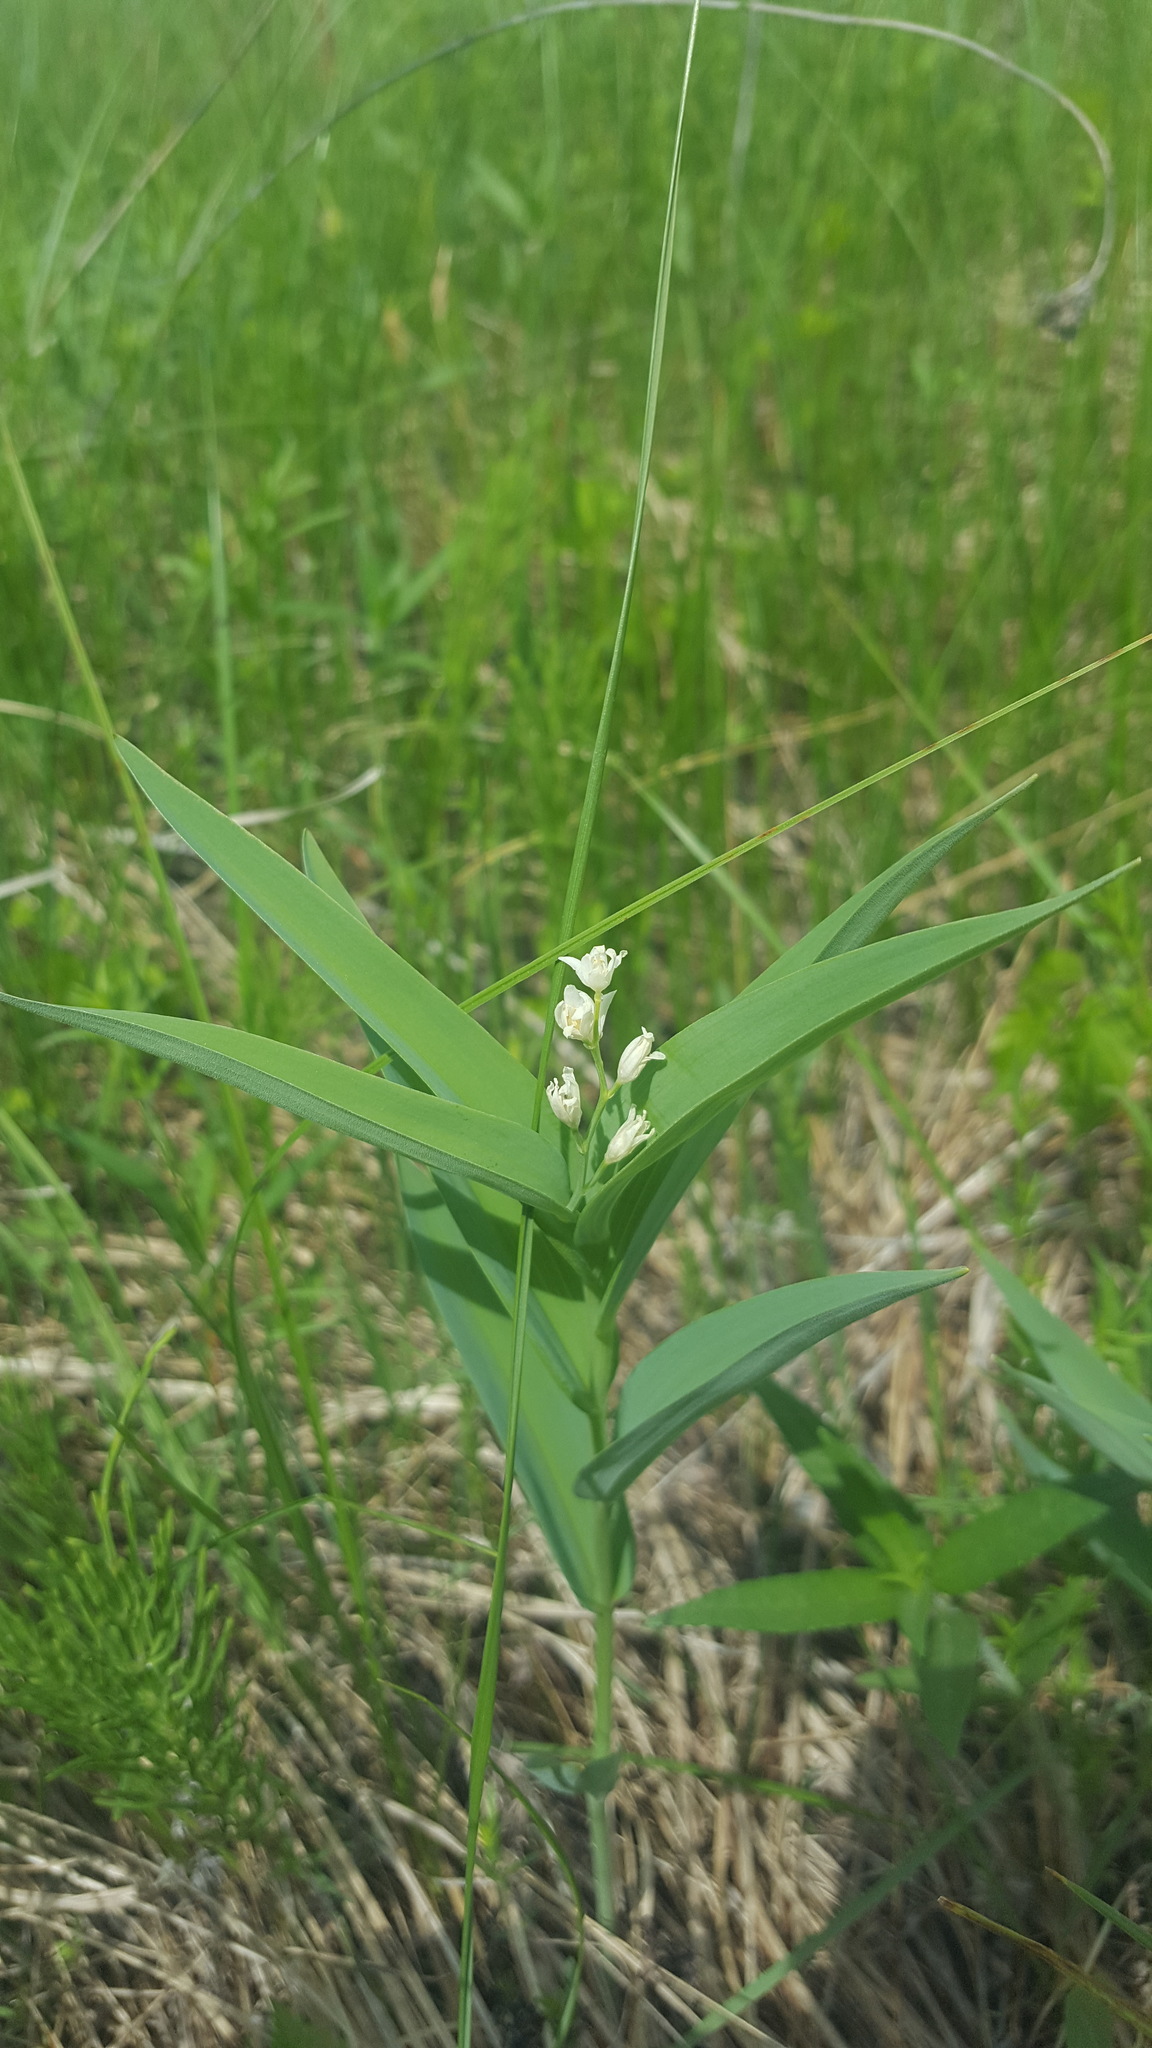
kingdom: Plantae
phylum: Tracheophyta
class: Liliopsida
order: Asparagales
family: Asparagaceae
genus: Maianthemum
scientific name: Maianthemum stellatum
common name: Little false solomon's seal
